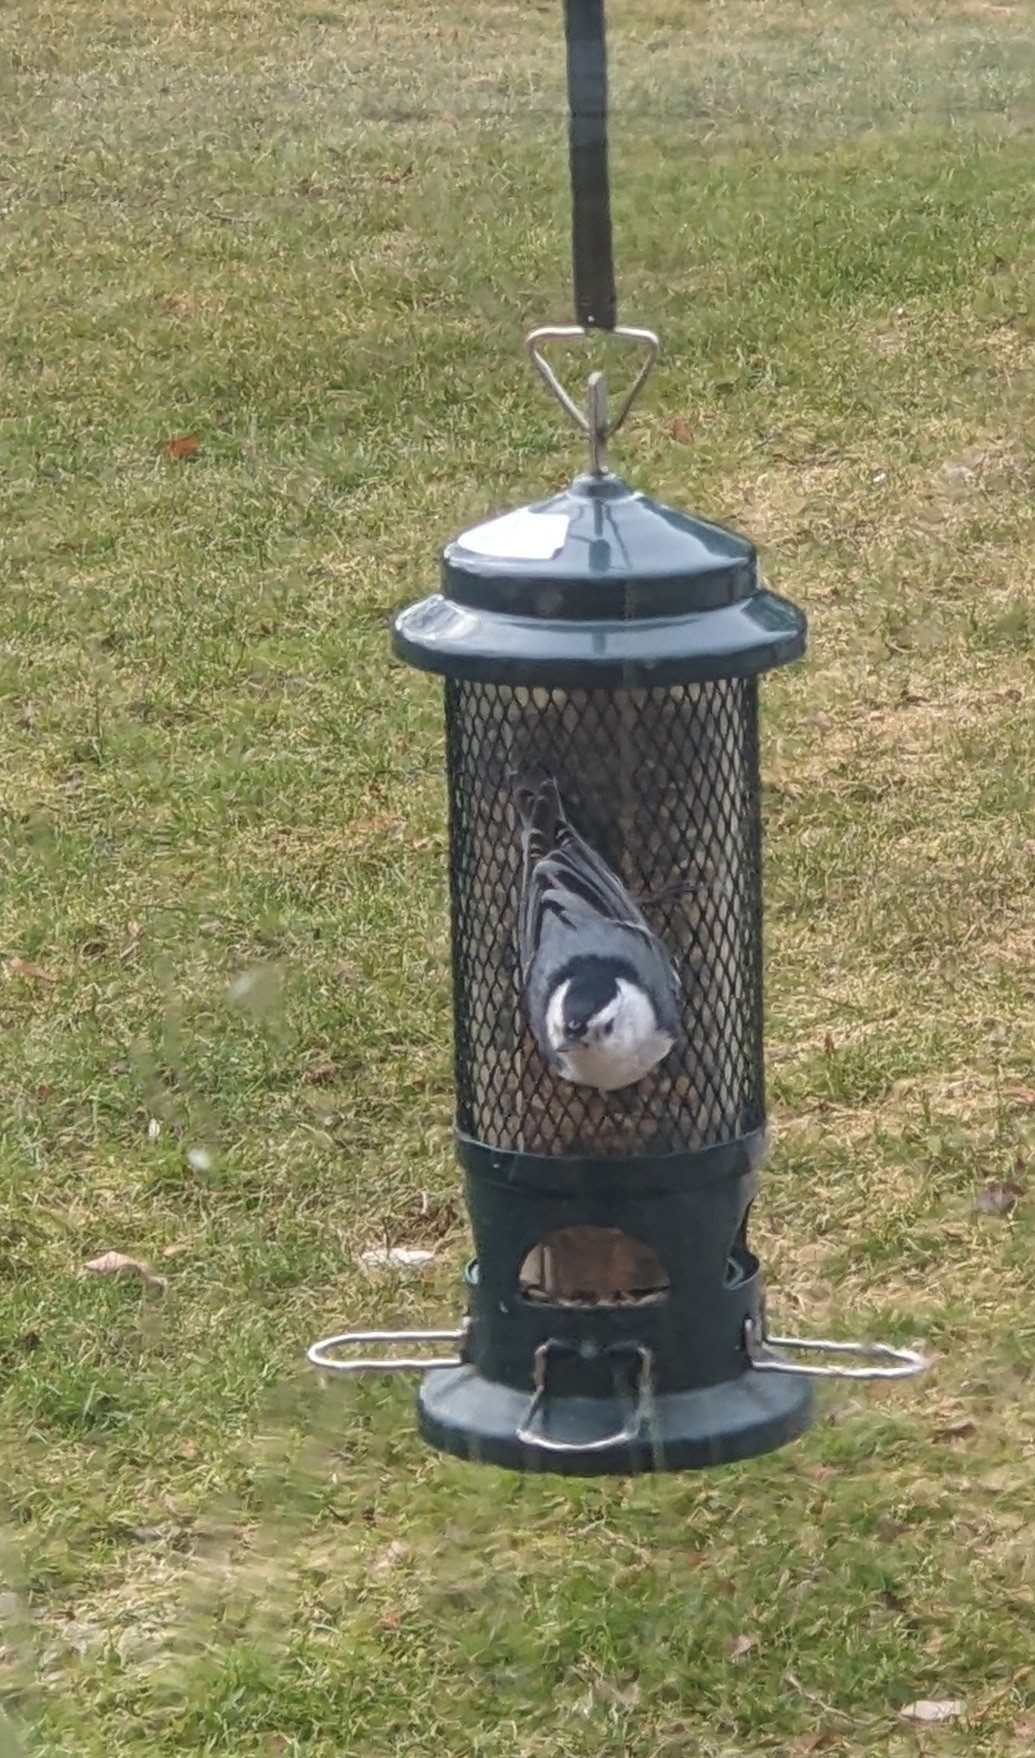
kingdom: Animalia
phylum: Chordata
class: Aves
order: Passeriformes
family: Sittidae
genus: Sitta
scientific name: Sitta carolinensis
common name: White-breasted nuthatch
